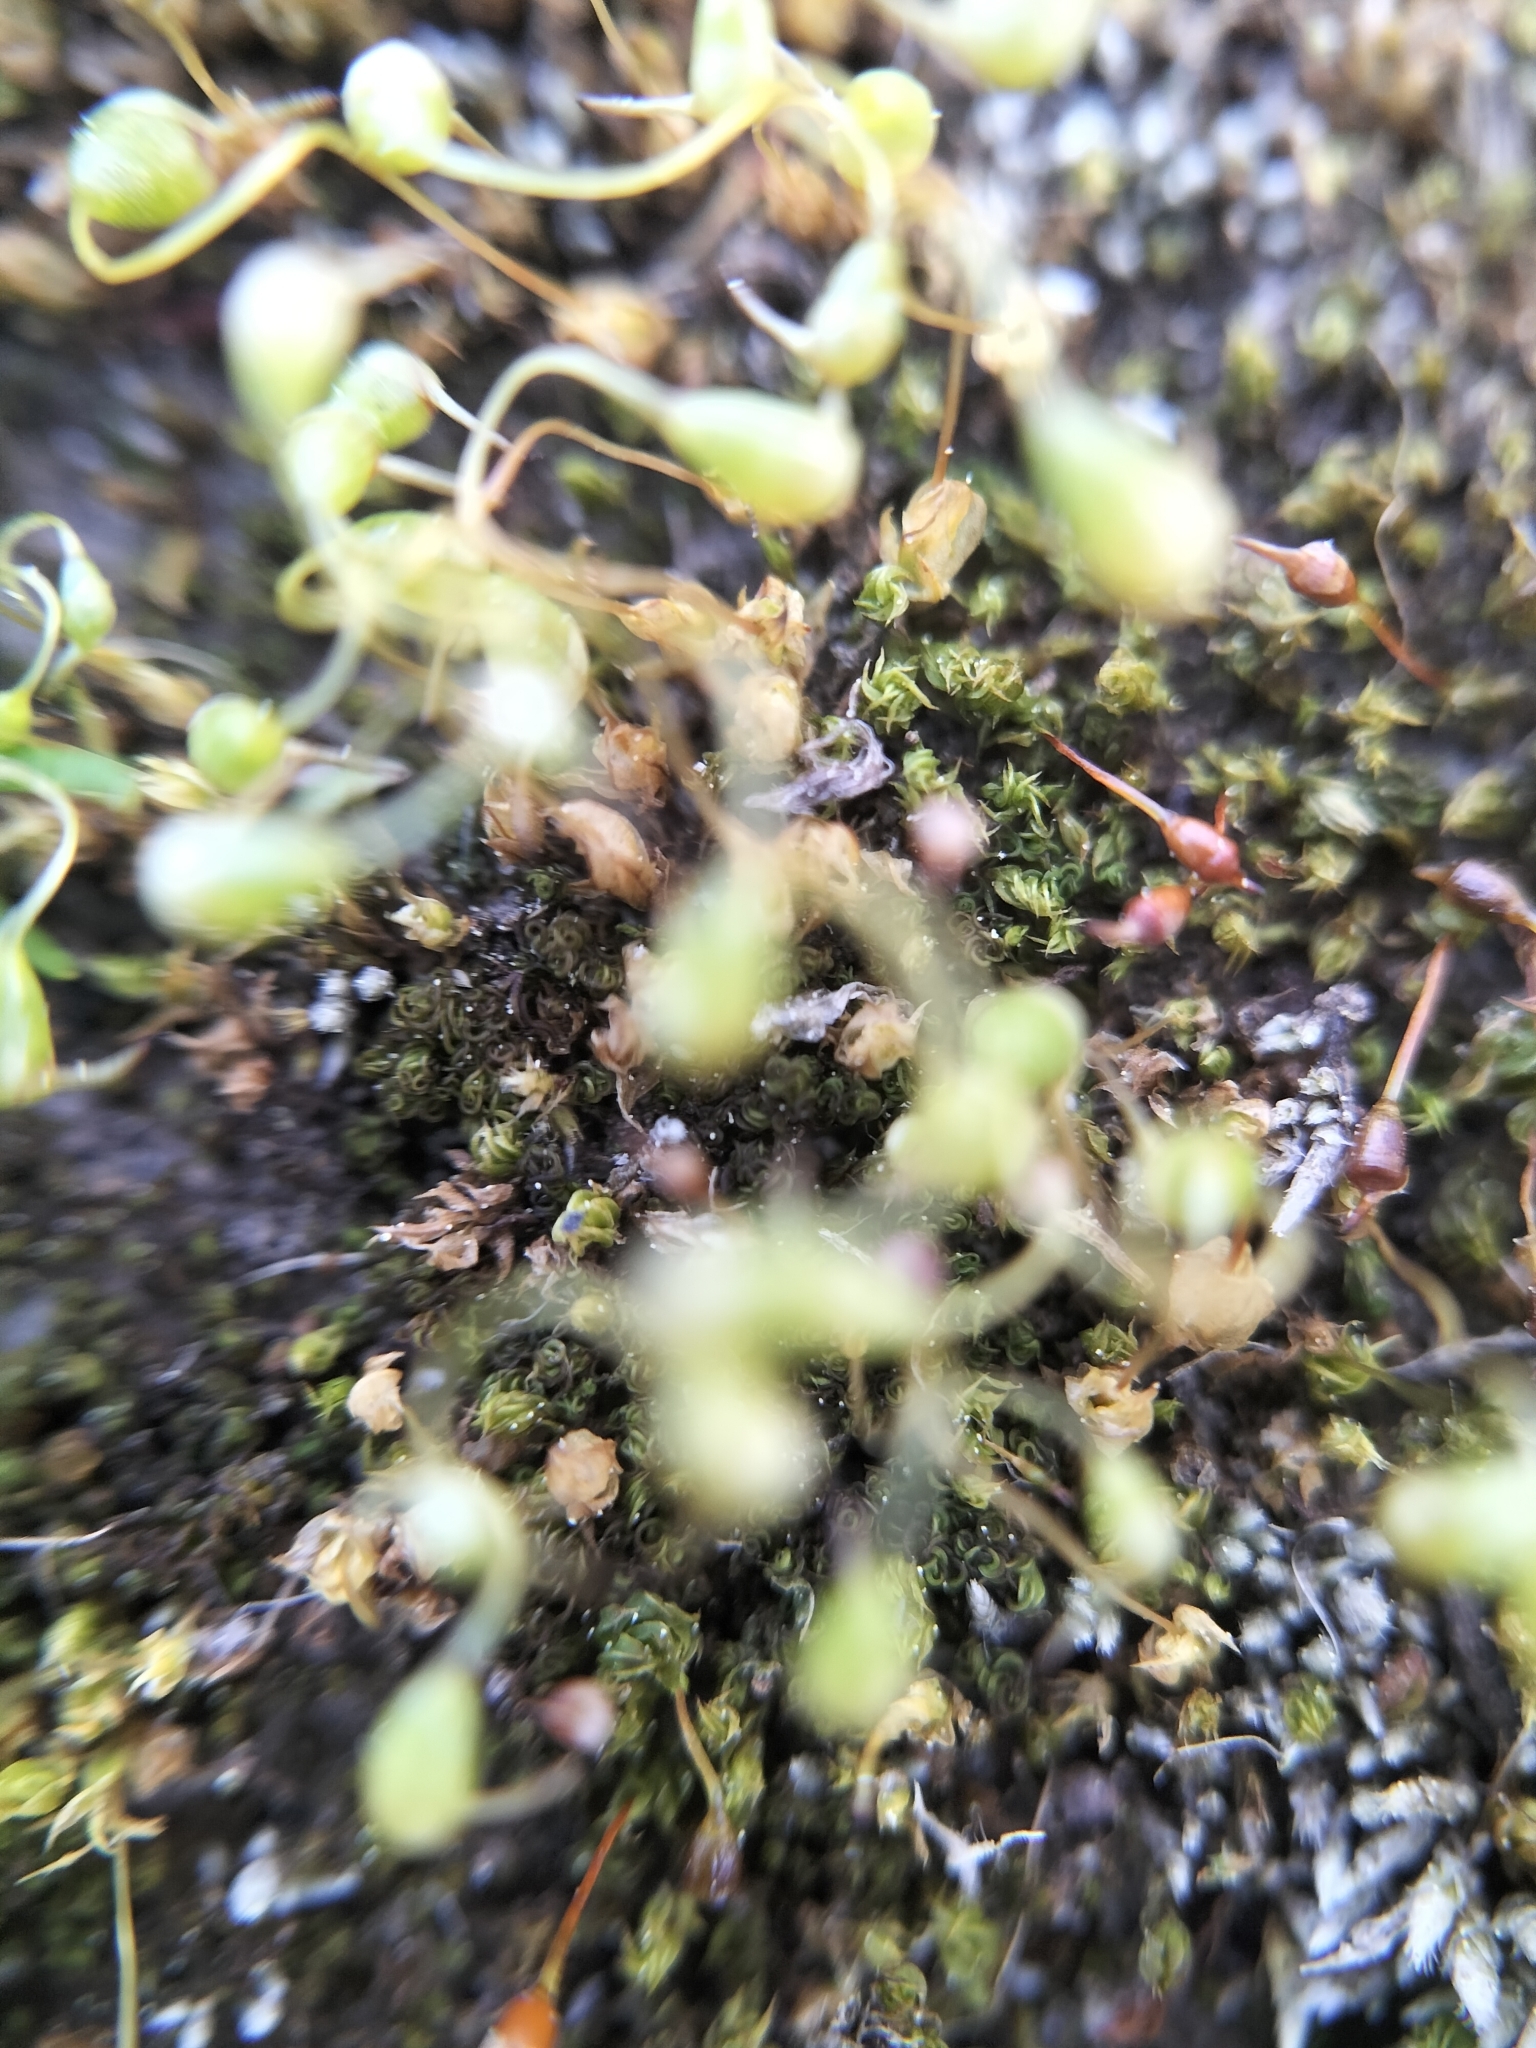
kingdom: Plantae
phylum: Bryophyta
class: Bryopsida
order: Funariales
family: Funariaceae
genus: Funaria
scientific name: Funaria hygrometrica
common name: Common cord moss
